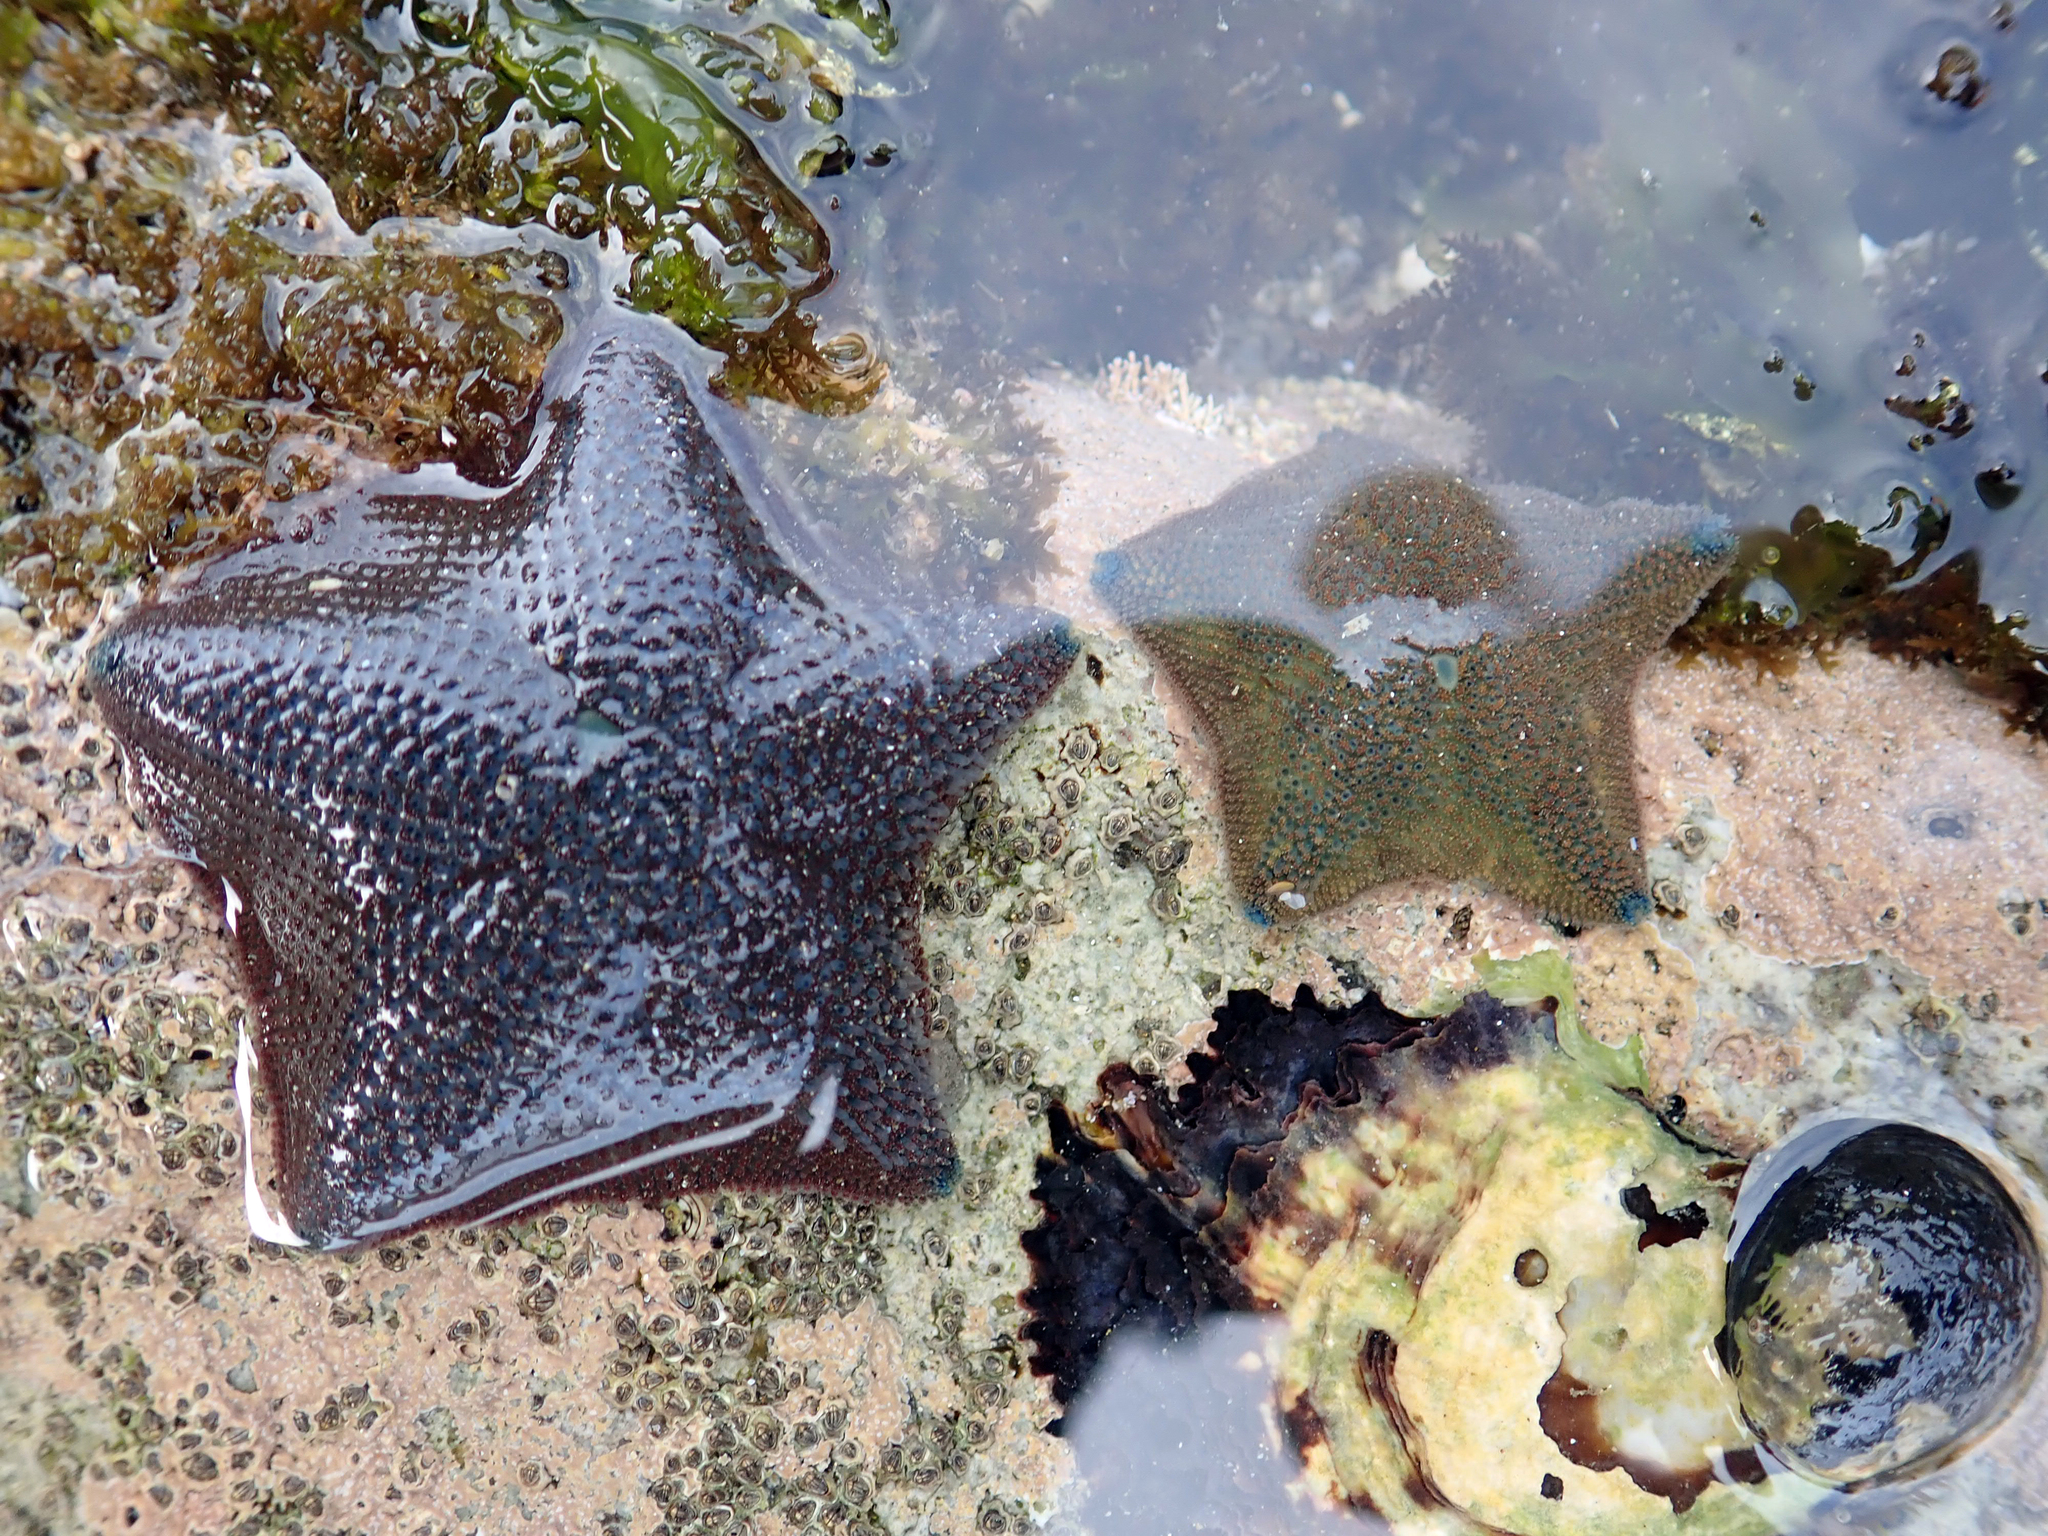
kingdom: Animalia
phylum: Echinodermata
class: Asteroidea
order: Valvatida
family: Asterinidae
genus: Patiriella
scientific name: Patiriella regularis
